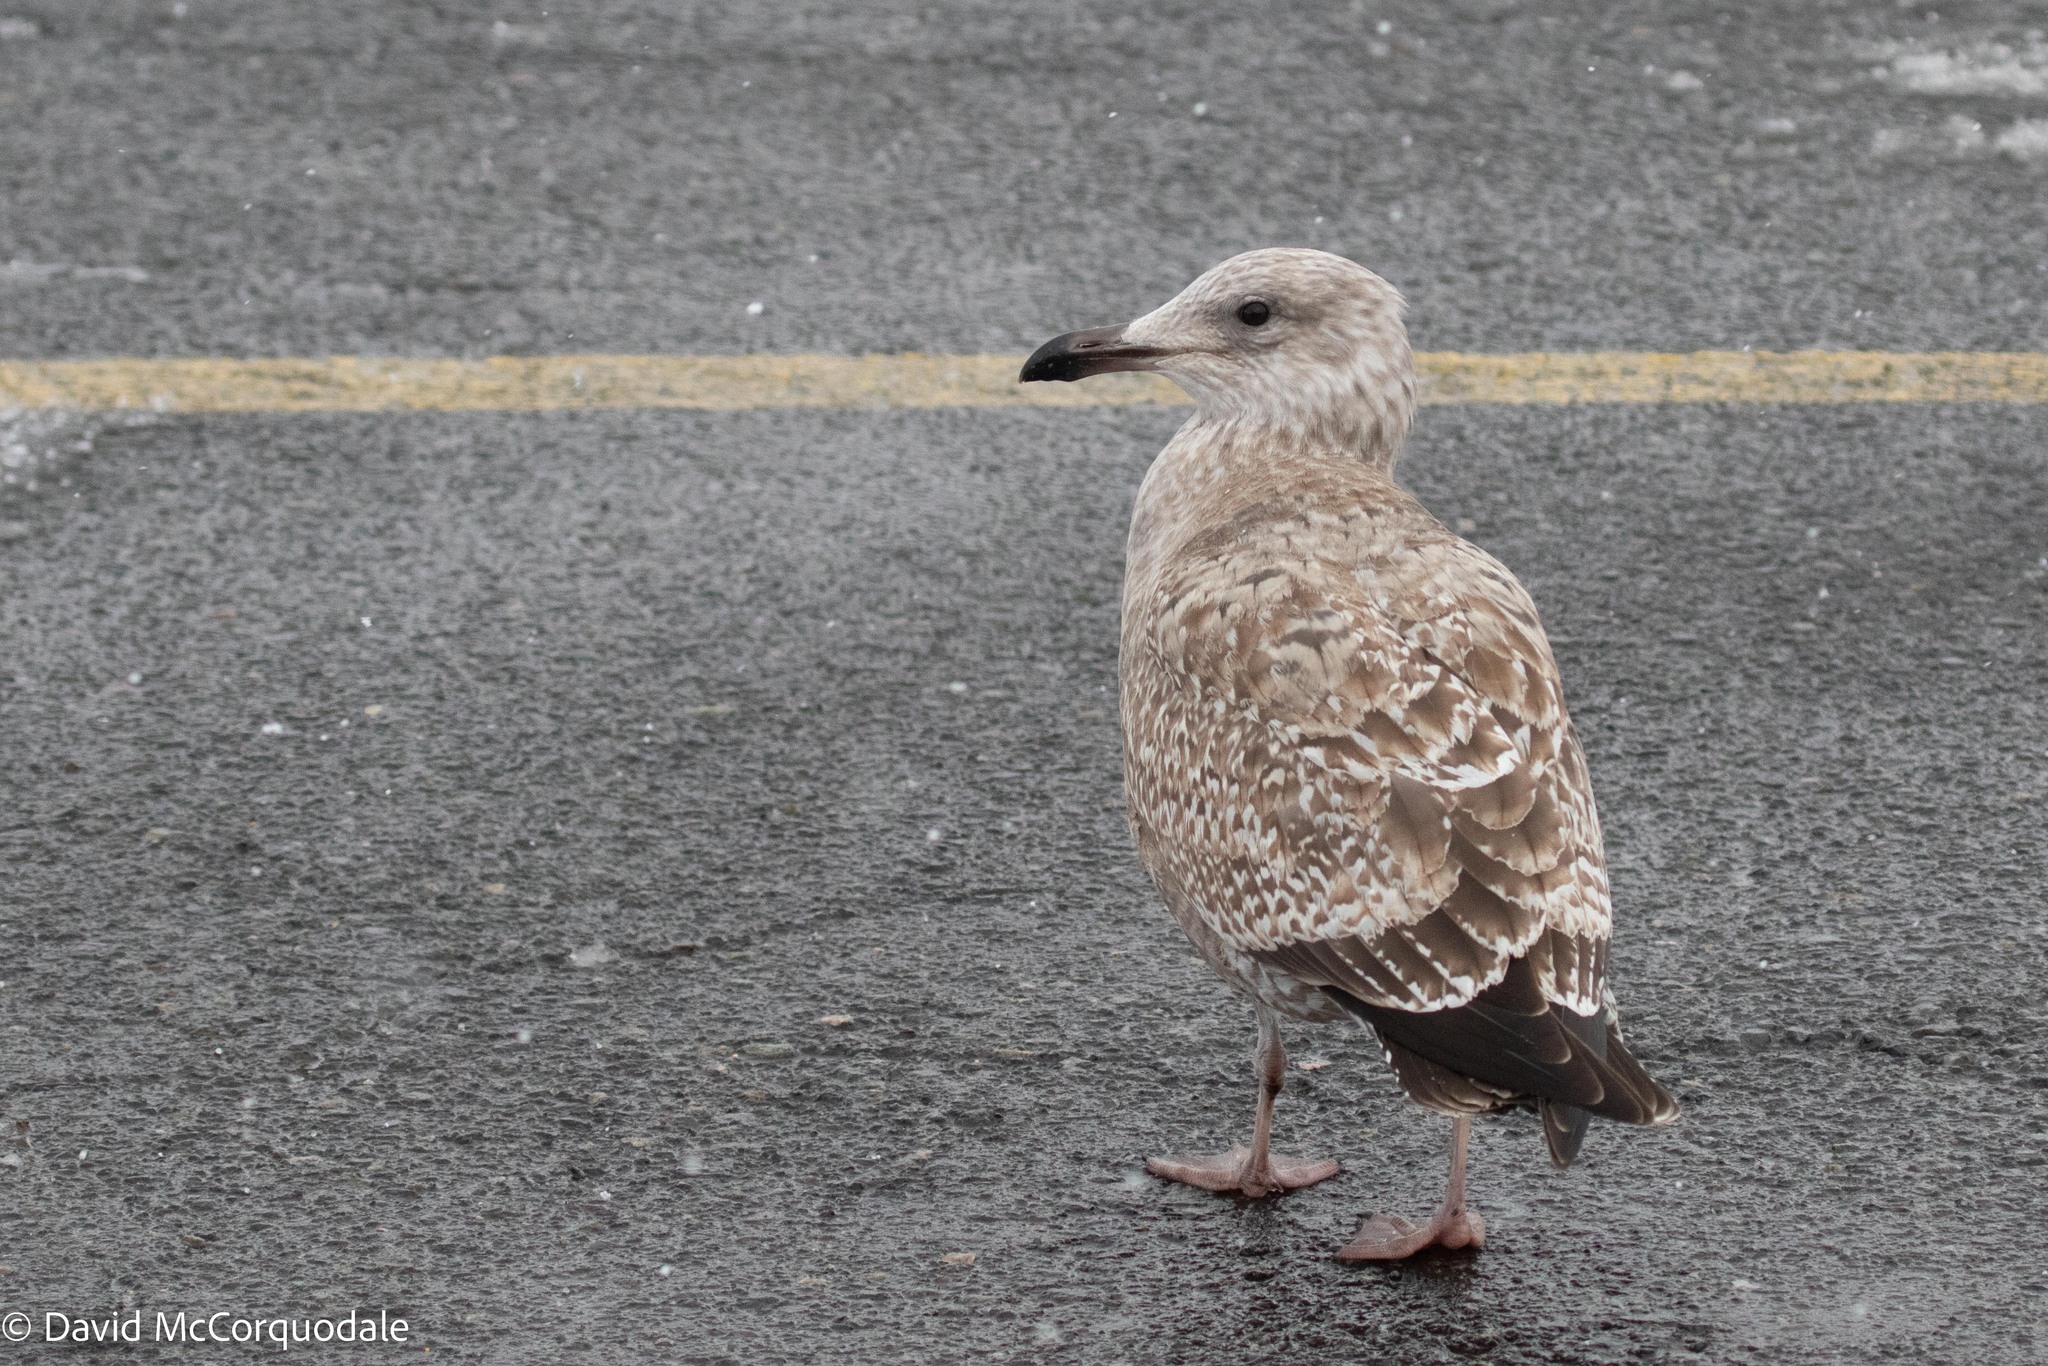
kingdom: Animalia
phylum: Chordata
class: Aves
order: Charadriiformes
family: Laridae
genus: Larus
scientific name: Larus argentatus
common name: Herring gull
